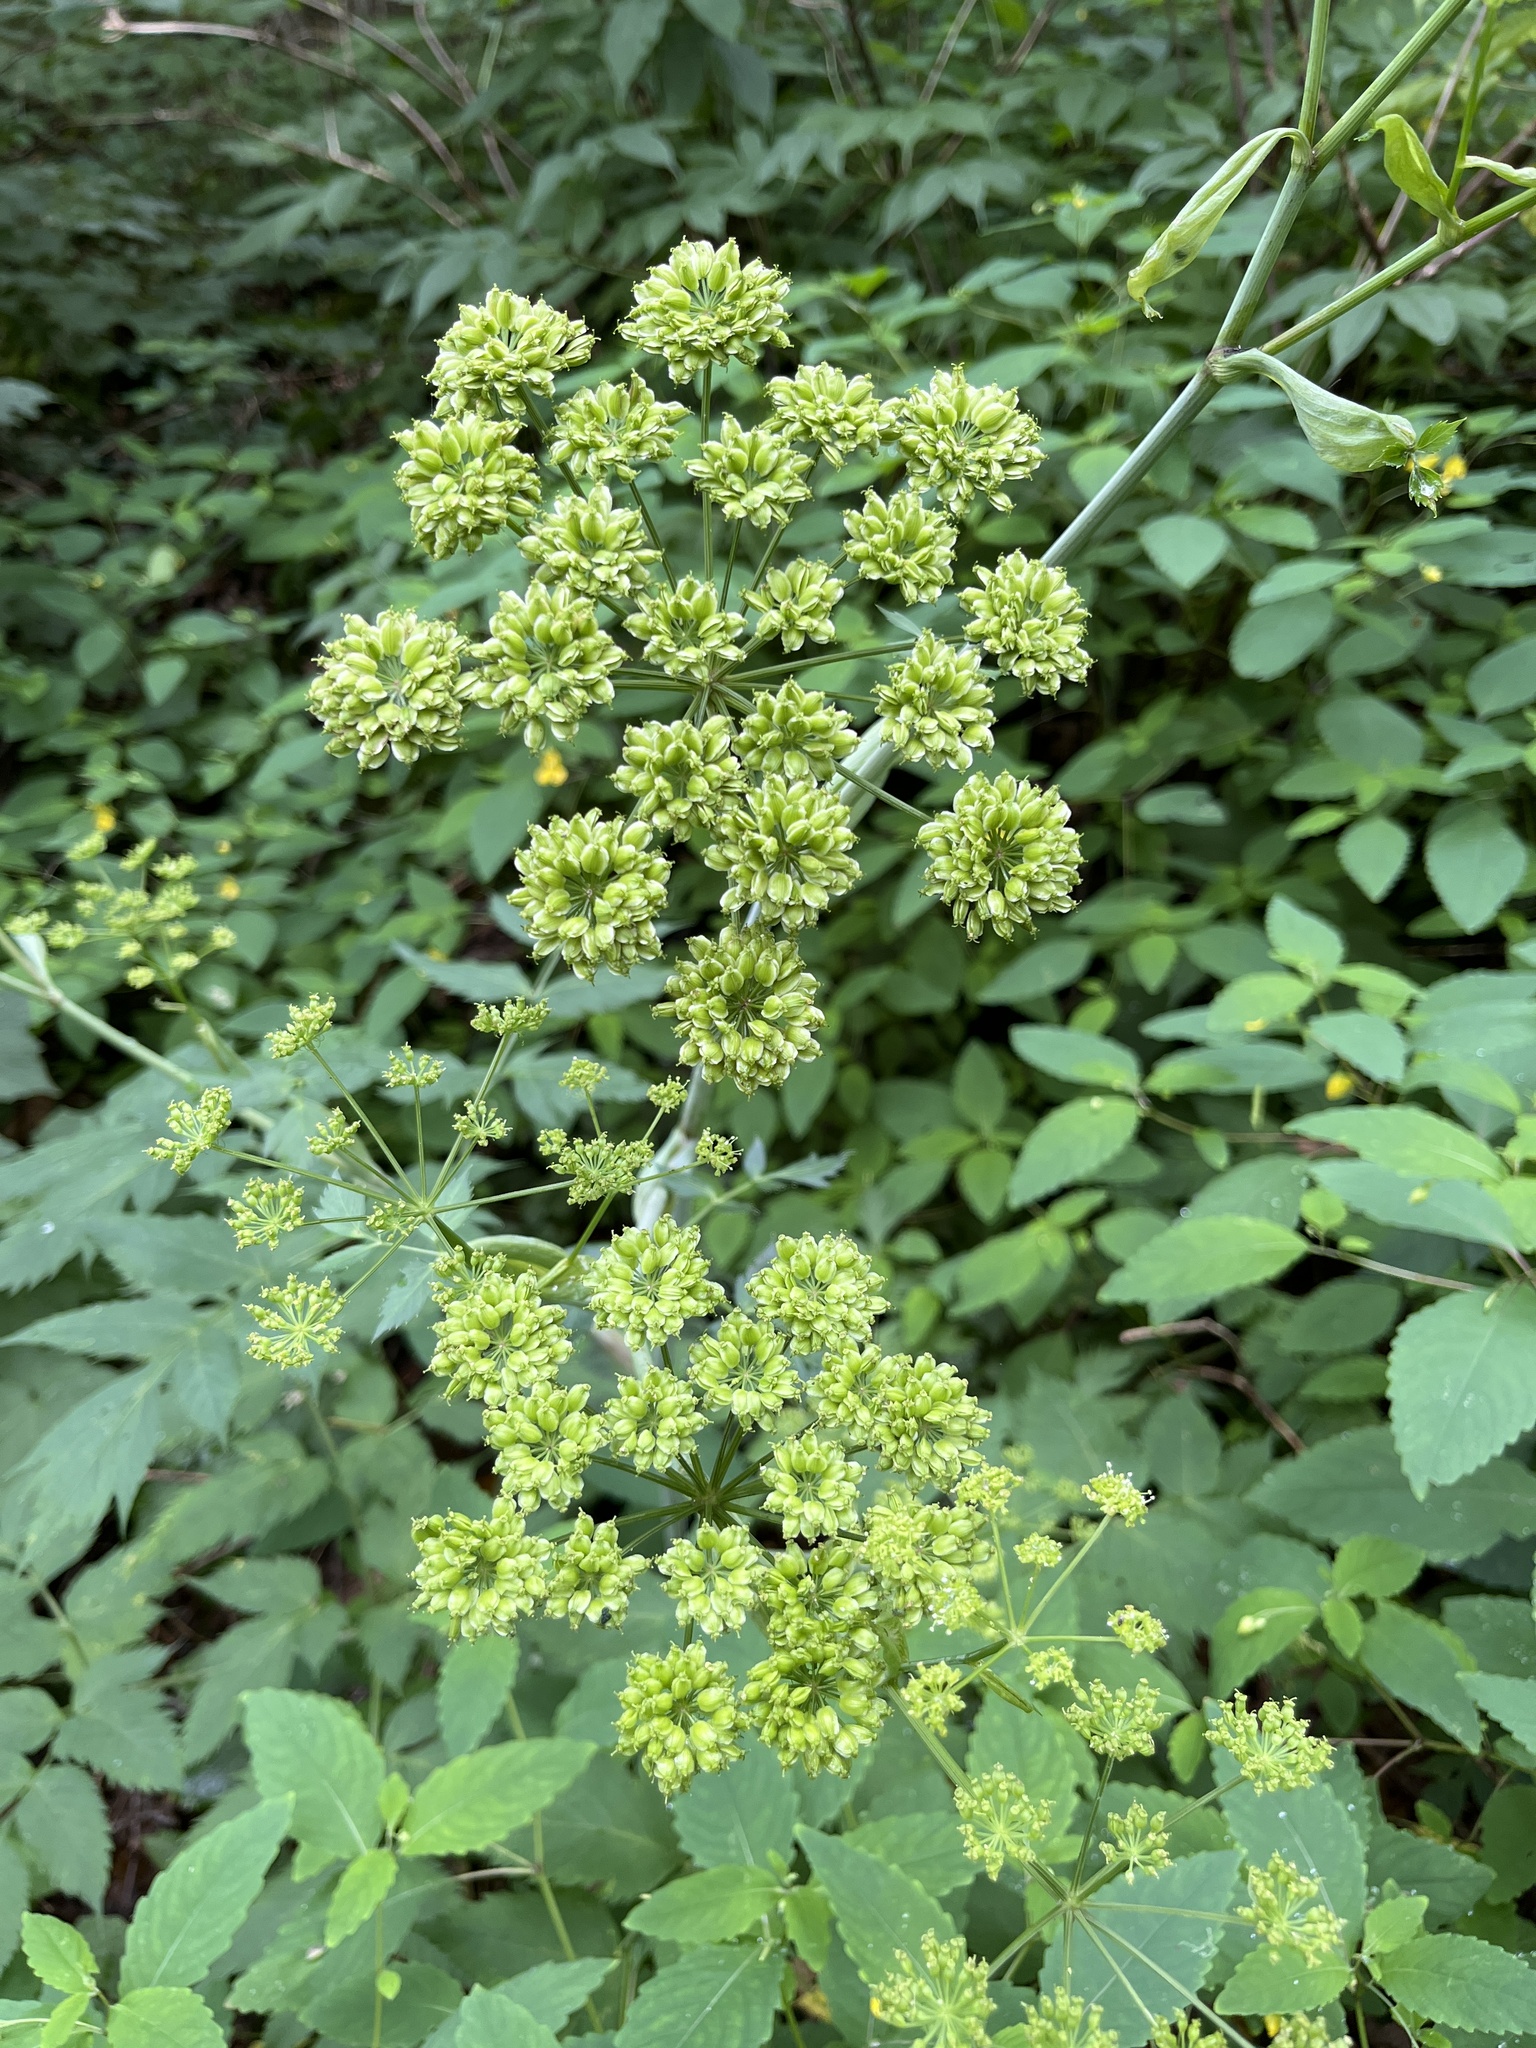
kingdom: Plantae
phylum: Tracheophyta
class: Magnoliopsida
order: Apiales
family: Apiaceae
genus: Angelica
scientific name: Angelica triquinata
